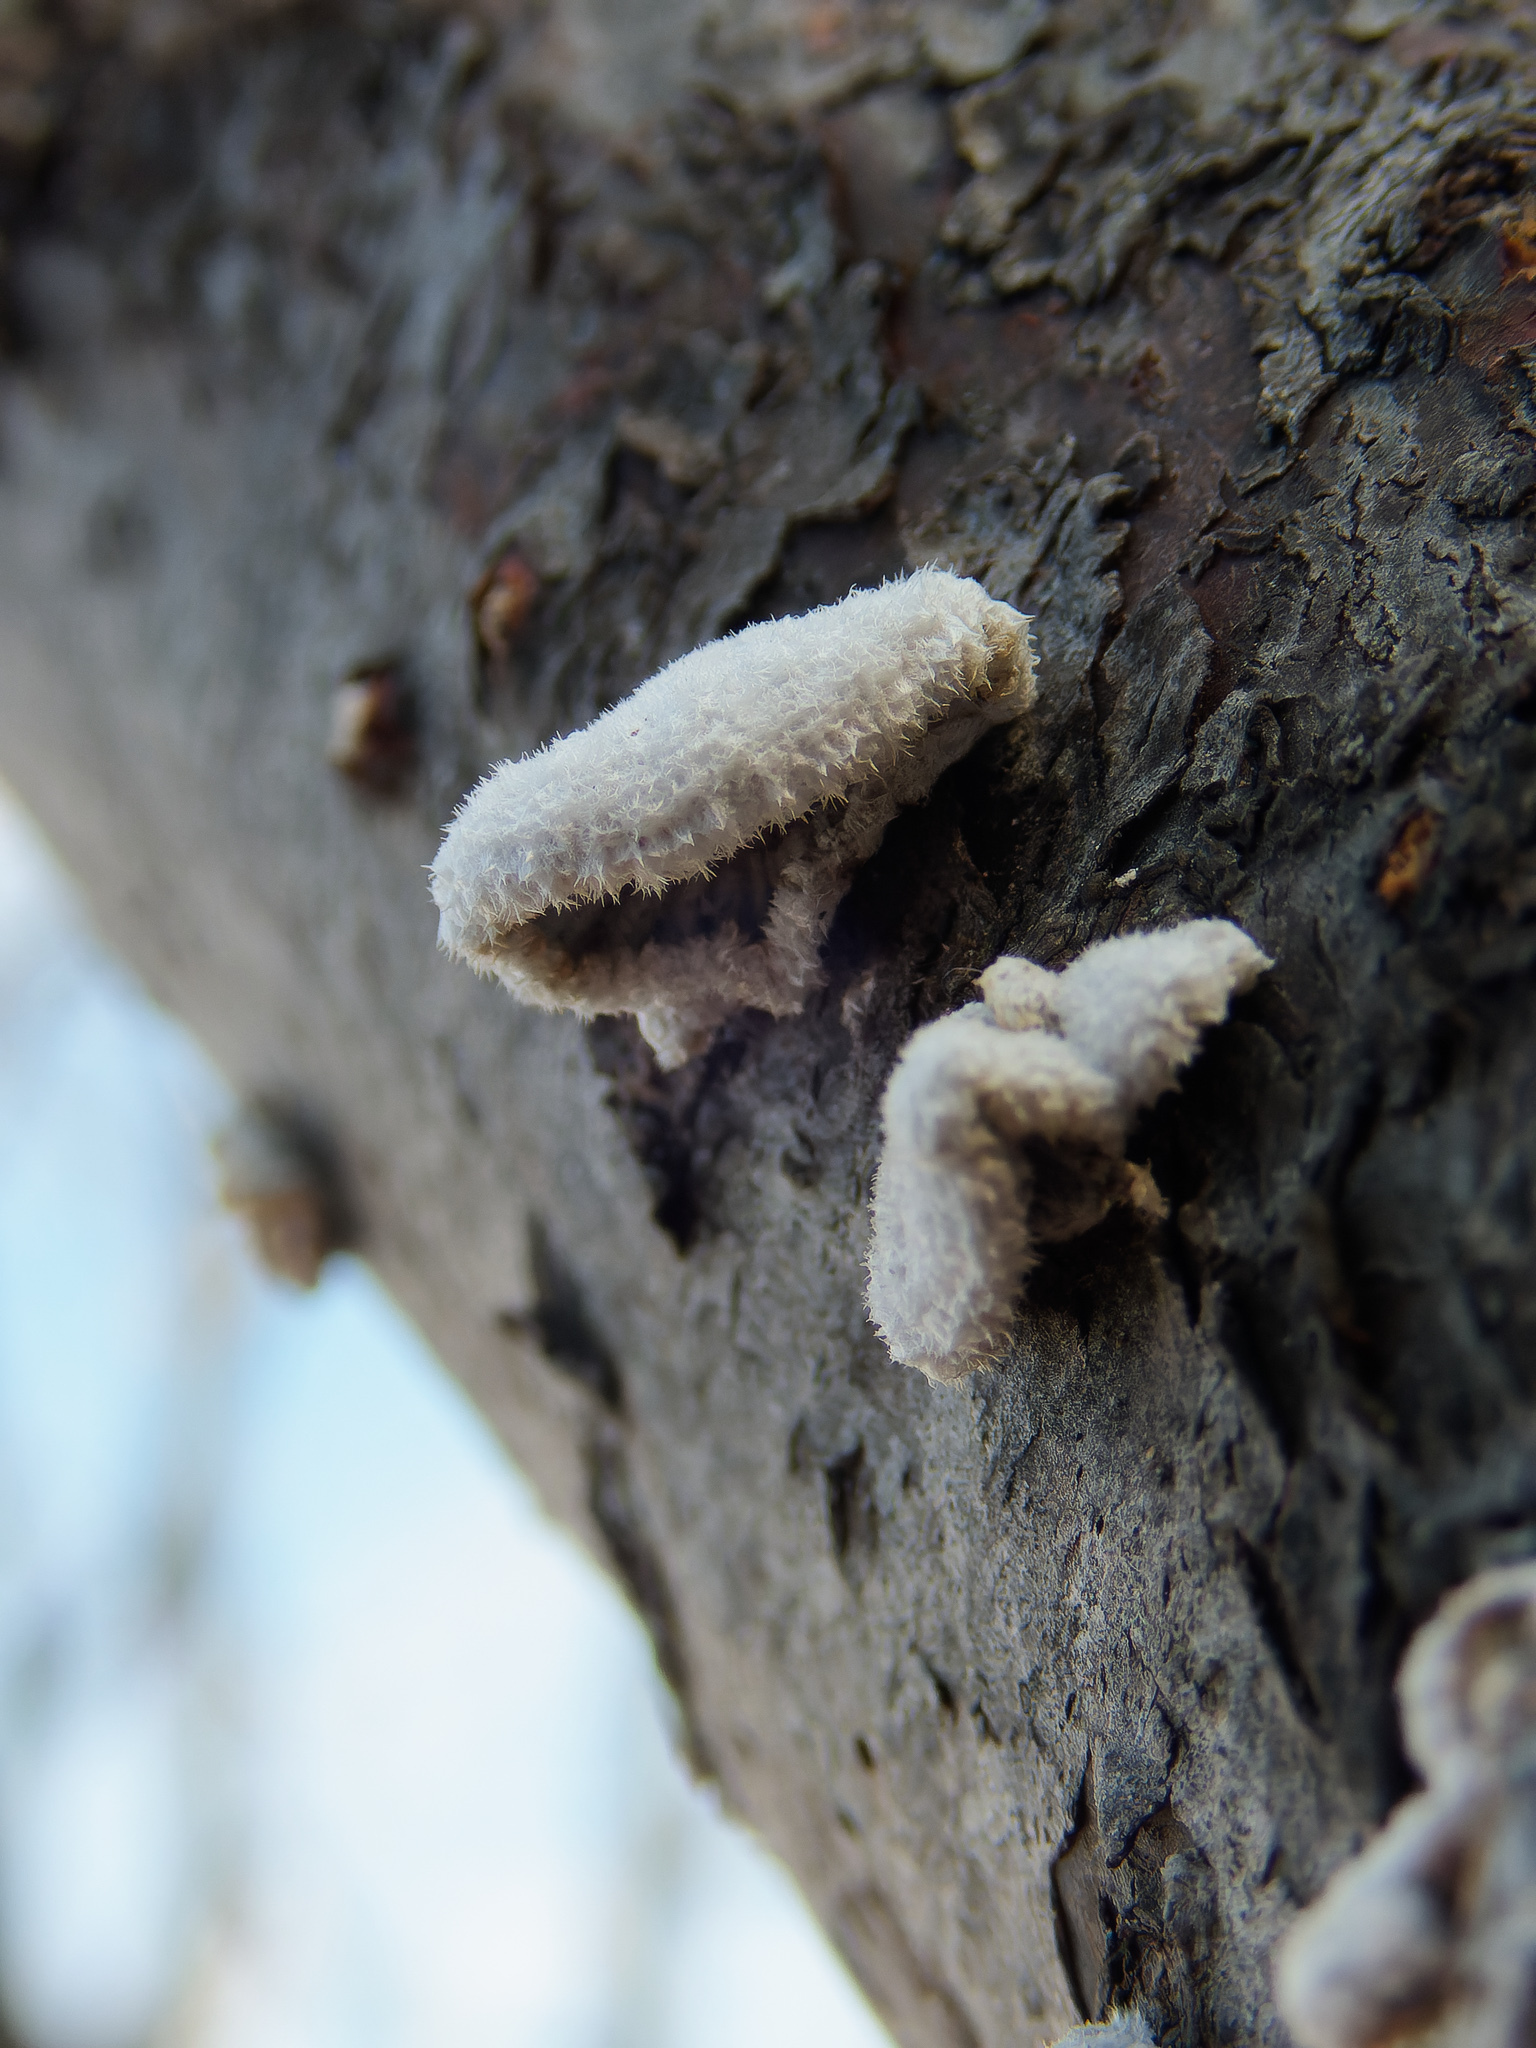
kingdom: Fungi
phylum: Basidiomycota
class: Agaricomycetes
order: Agaricales
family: Schizophyllaceae
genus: Schizophyllum
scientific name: Schizophyllum commune
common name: Common porecrust
